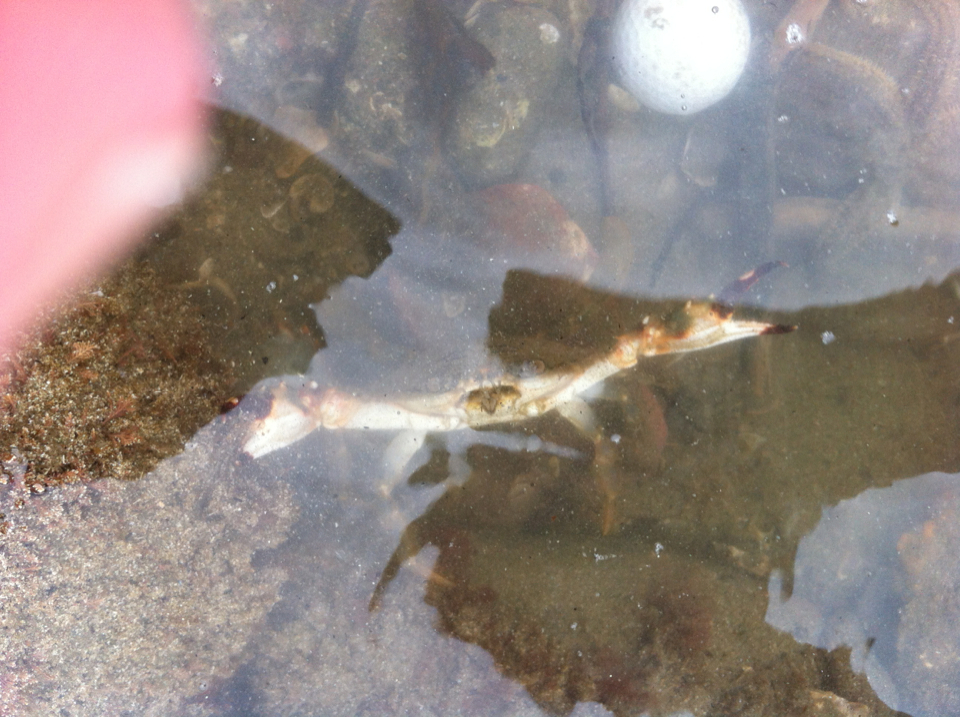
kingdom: Animalia
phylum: Arthropoda
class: Malacostraca
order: Decapoda
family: Portunidae
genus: Charybdis
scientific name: Charybdis japonica
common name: Asian paddle crab
